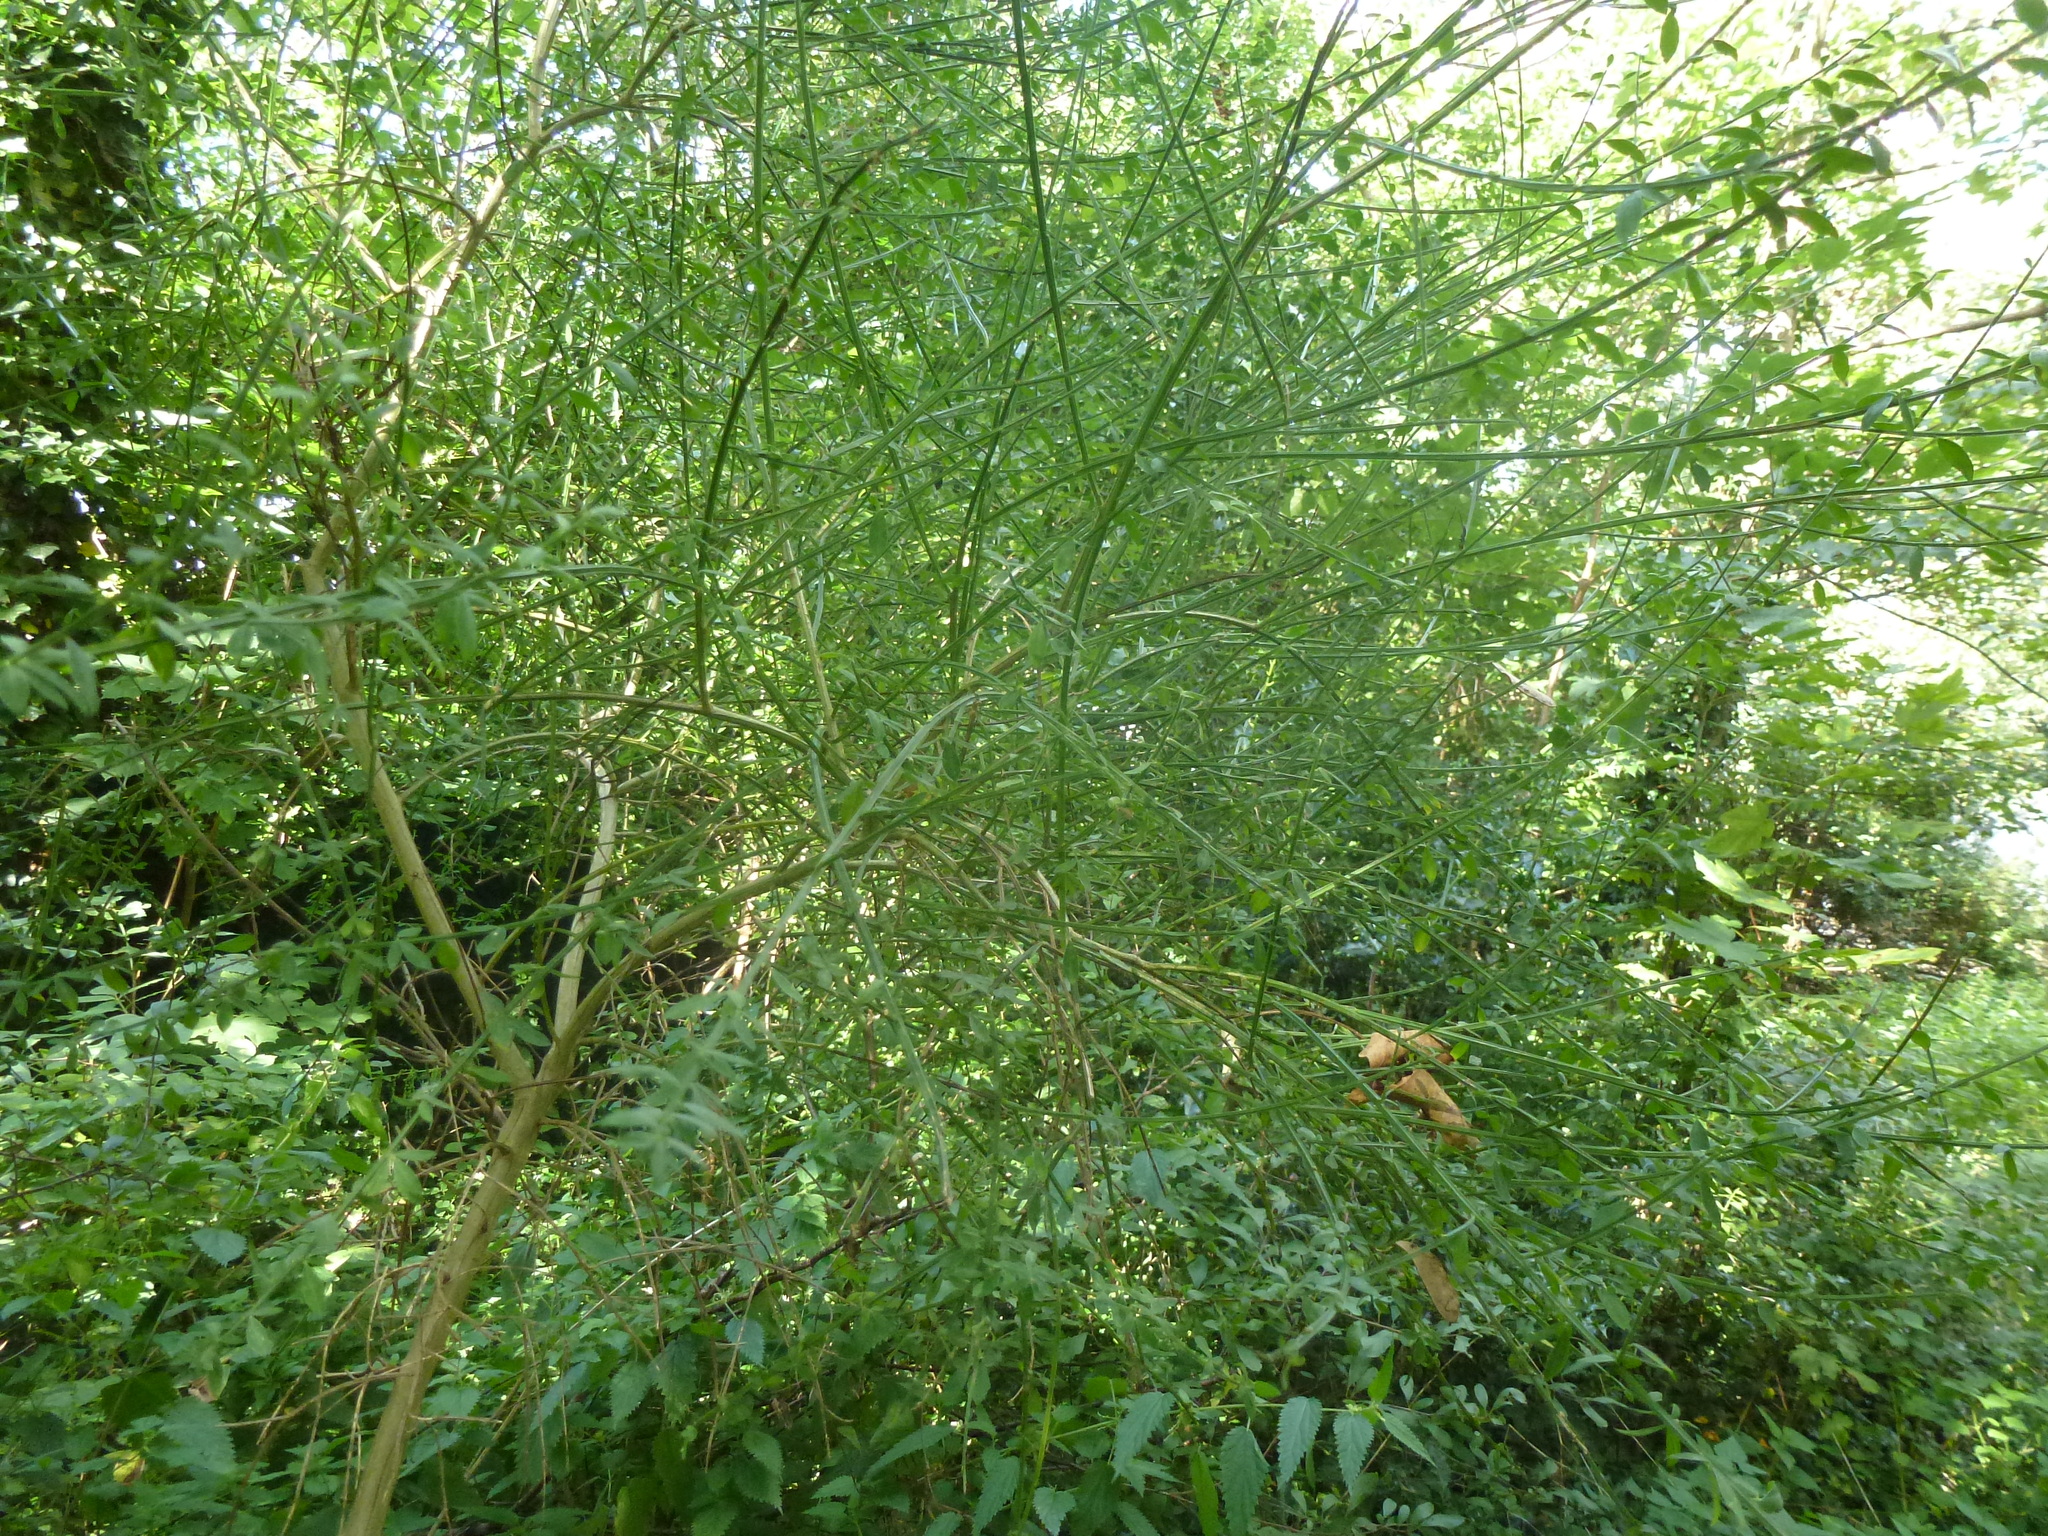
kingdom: Plantae
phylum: Tracheophyta
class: Magnoliopsida
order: Fabales
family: Fabaceae
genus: Cytisus
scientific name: Cytisus scoparius
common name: Scotch broom
